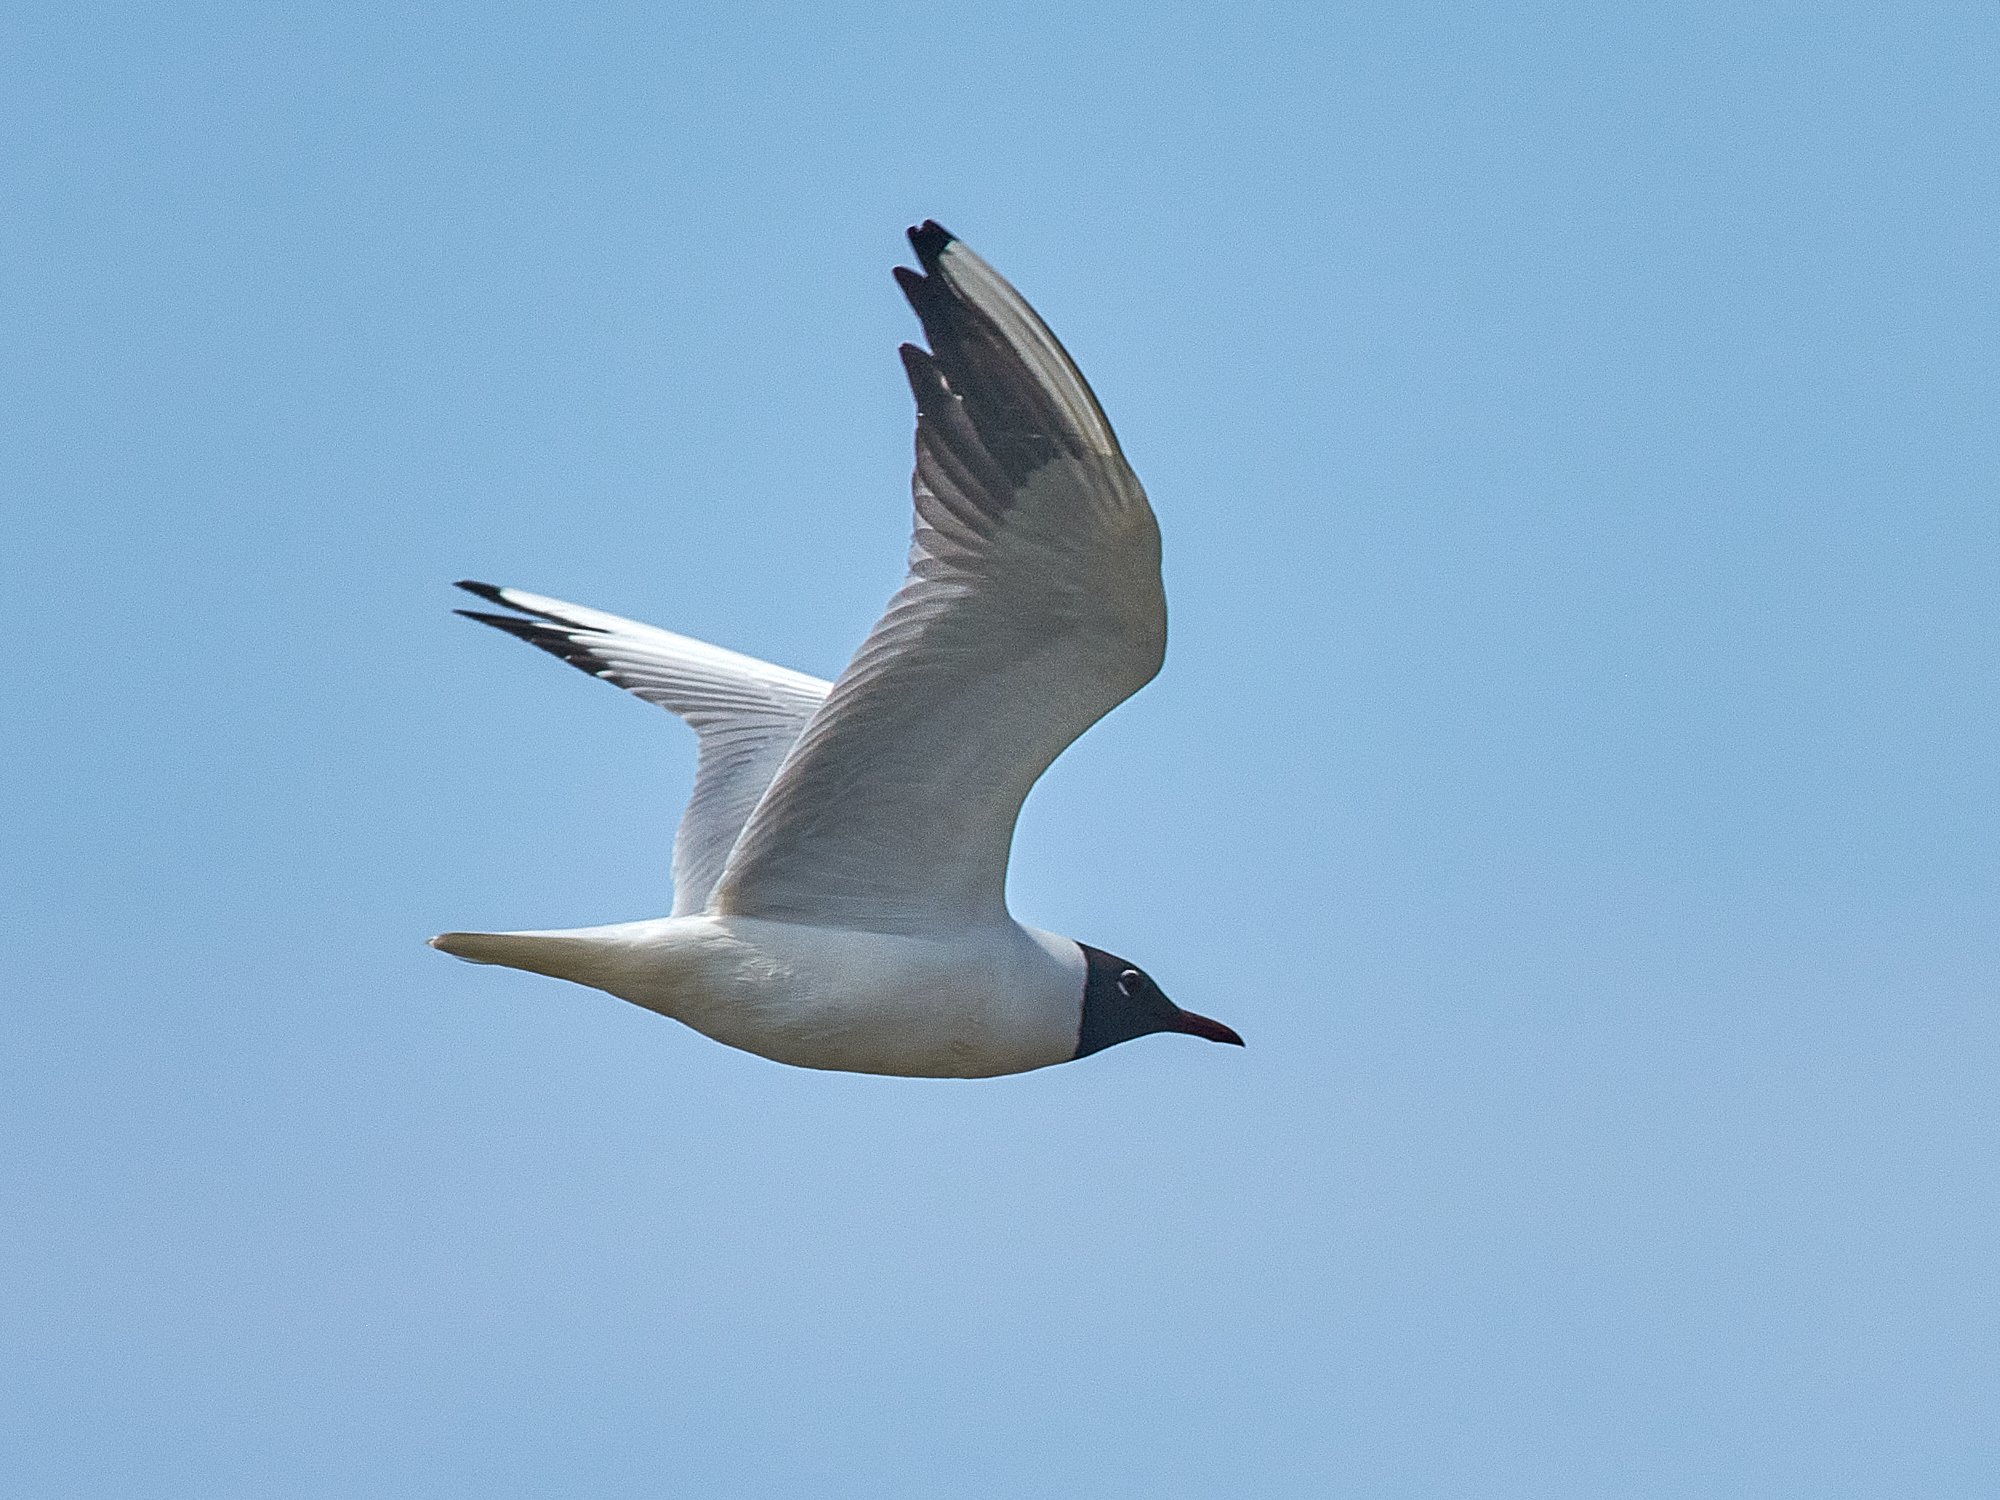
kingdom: Animalia
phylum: Chordata
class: Aves
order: Charadriiformes
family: Laridae
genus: Chroicocephalus
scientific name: Chroicocephalus ridibundus
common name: Black-headed gull
